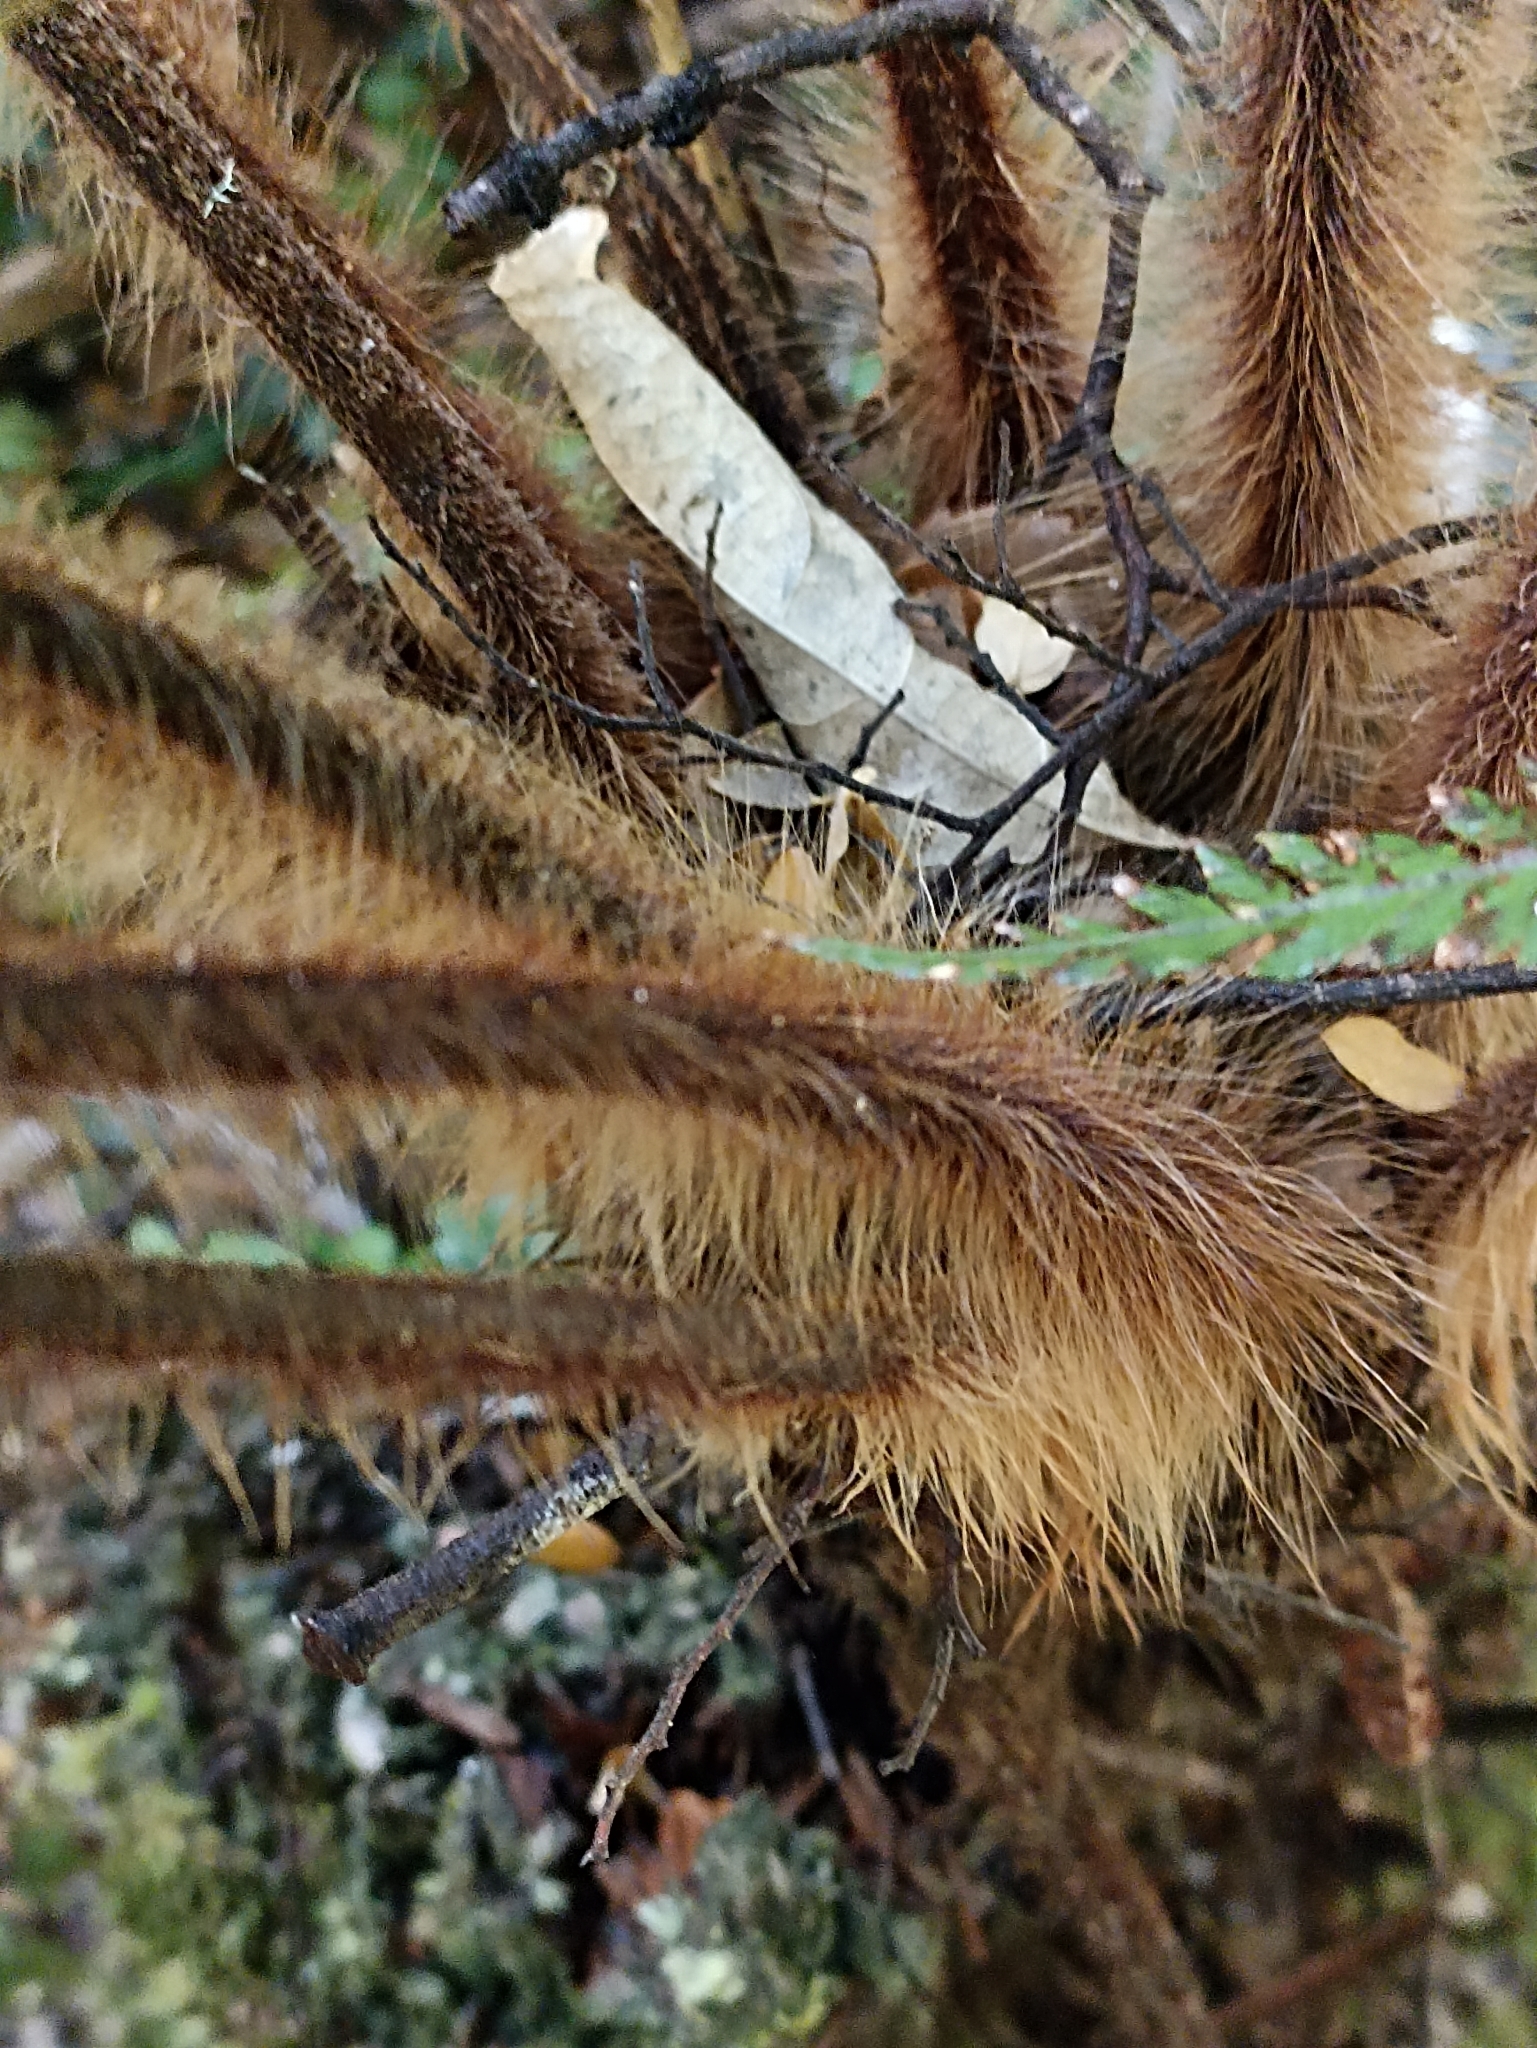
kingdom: Plantae
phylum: Tracheophyta
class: Polypodiopsida
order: Cyatheales
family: Dicksoniaceae
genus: Dicksonia
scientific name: Dicksonia squarrosa
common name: Hard treefern
